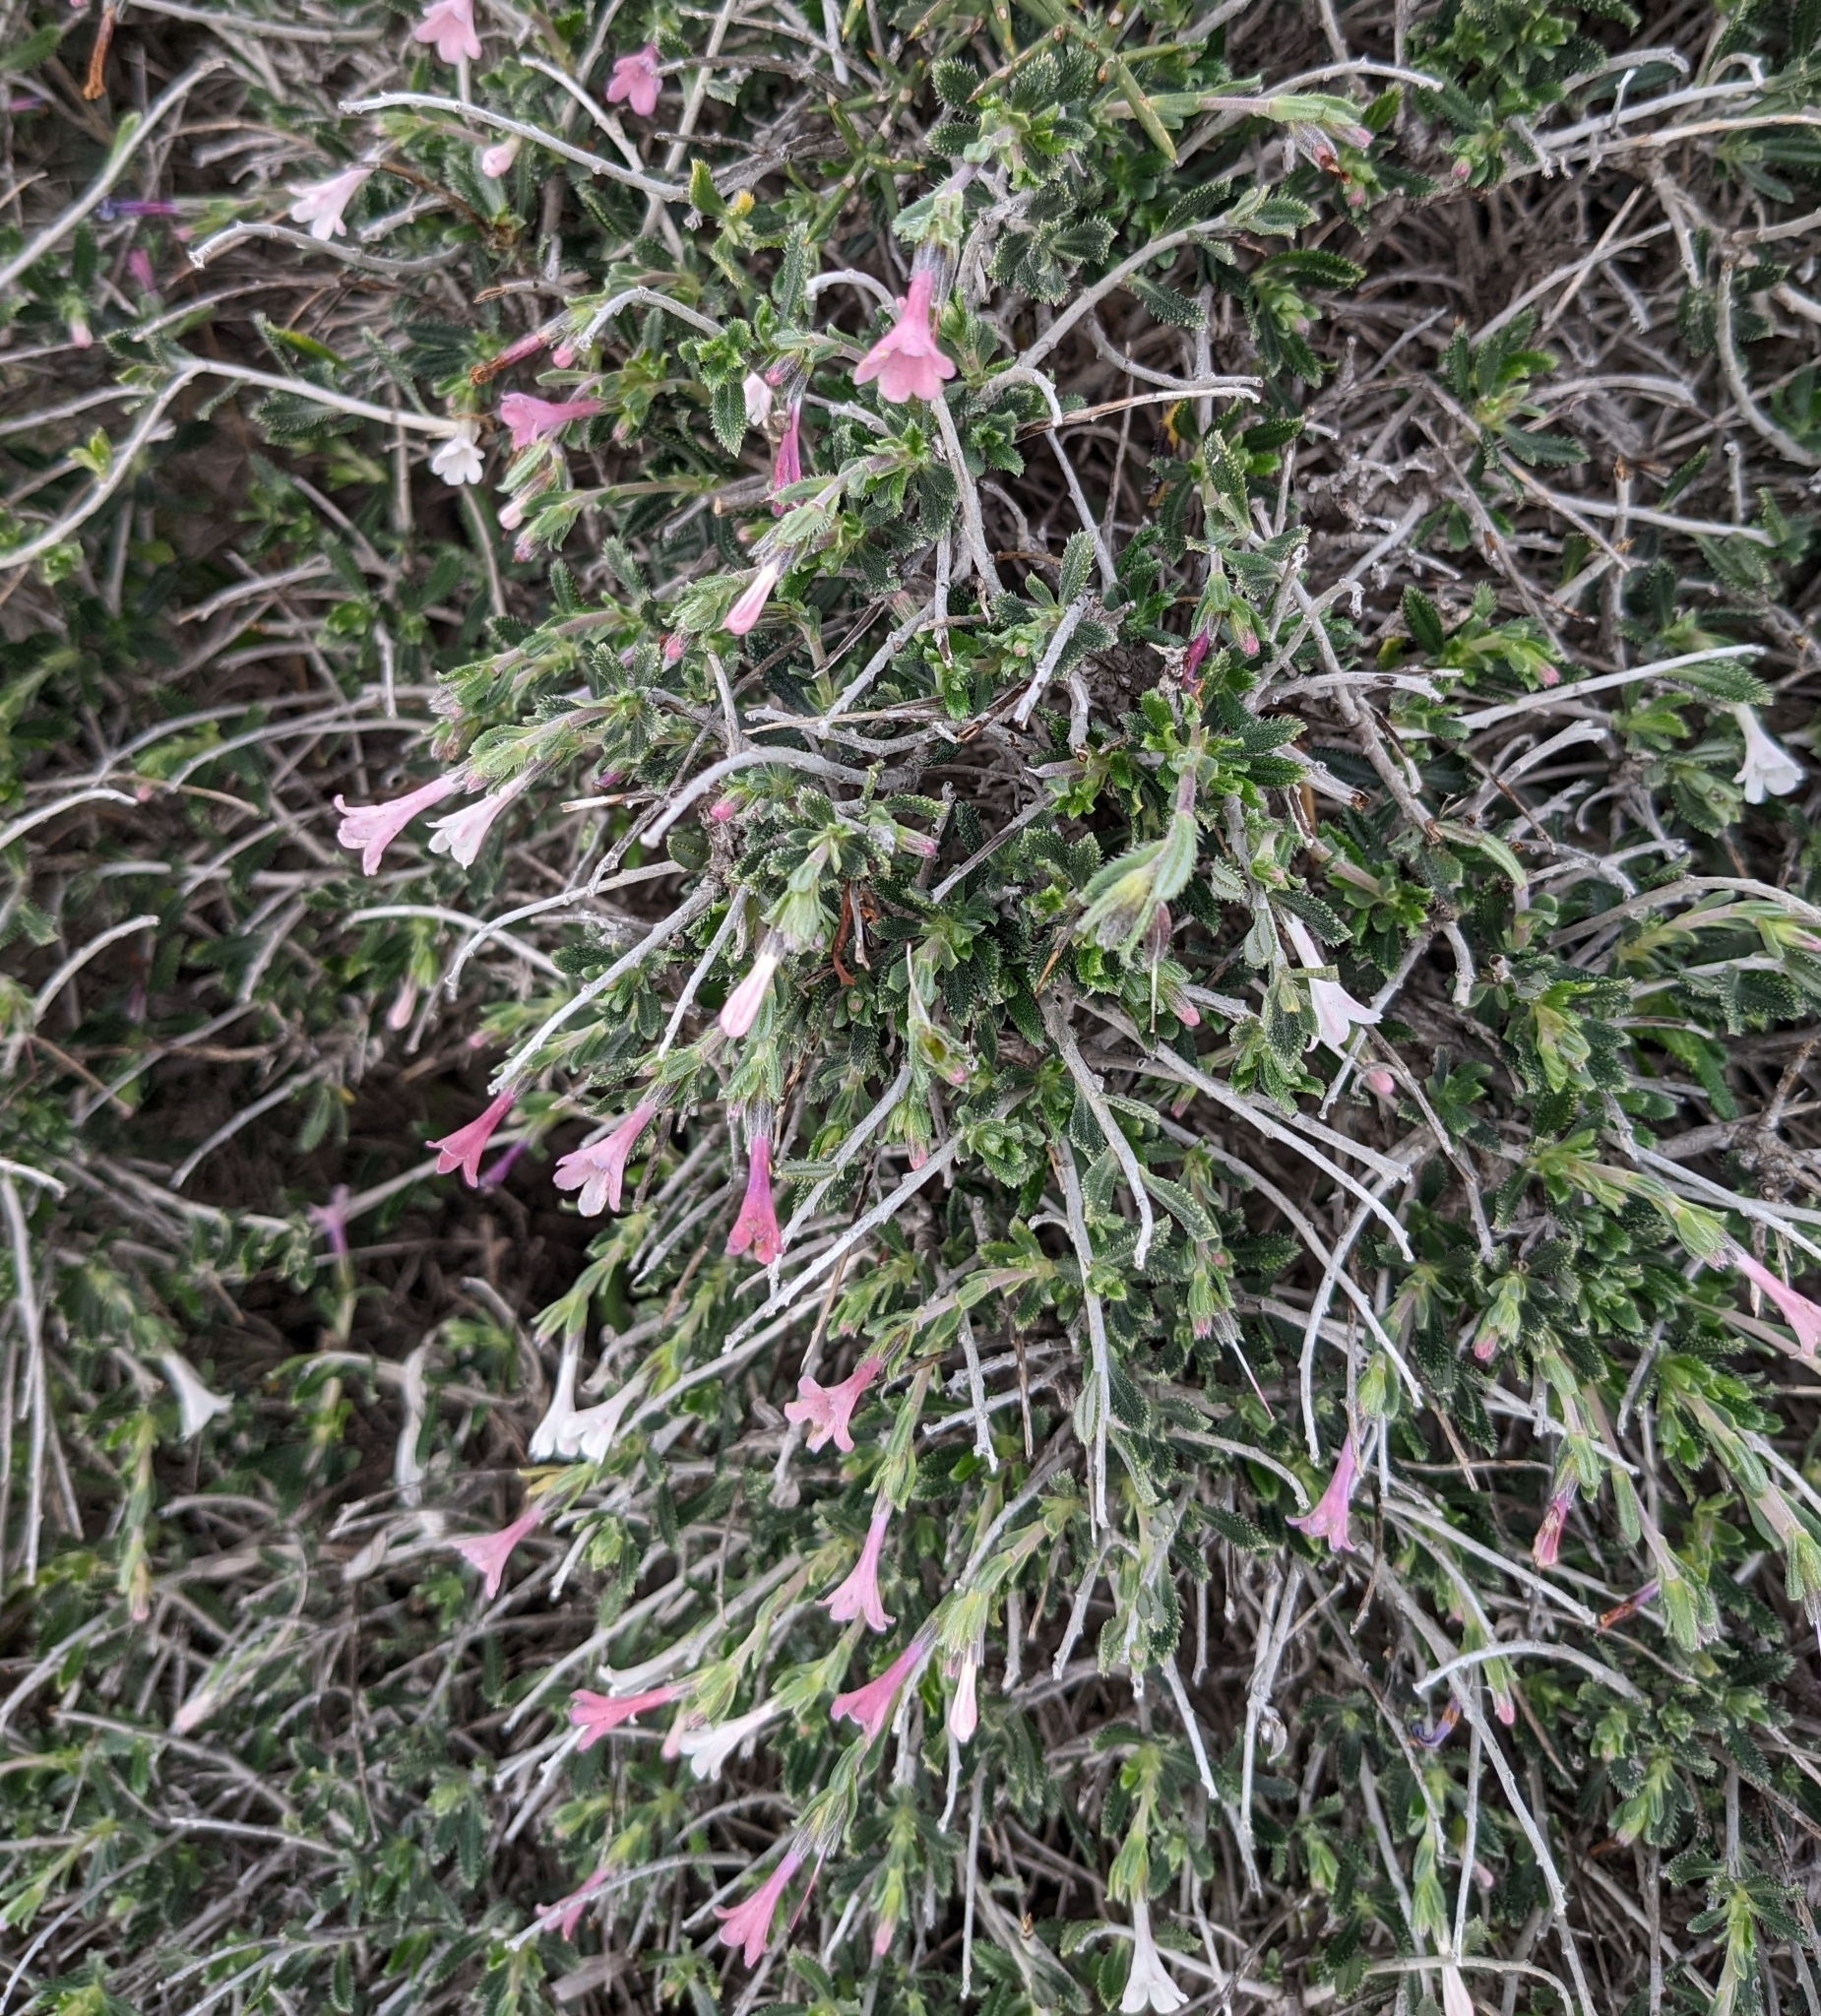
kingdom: Plantae
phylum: Tracheophyta
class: Magnoliopsida
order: Boraginales
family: Boraginaceae
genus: Lithodora
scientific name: Lithodora hispidula
